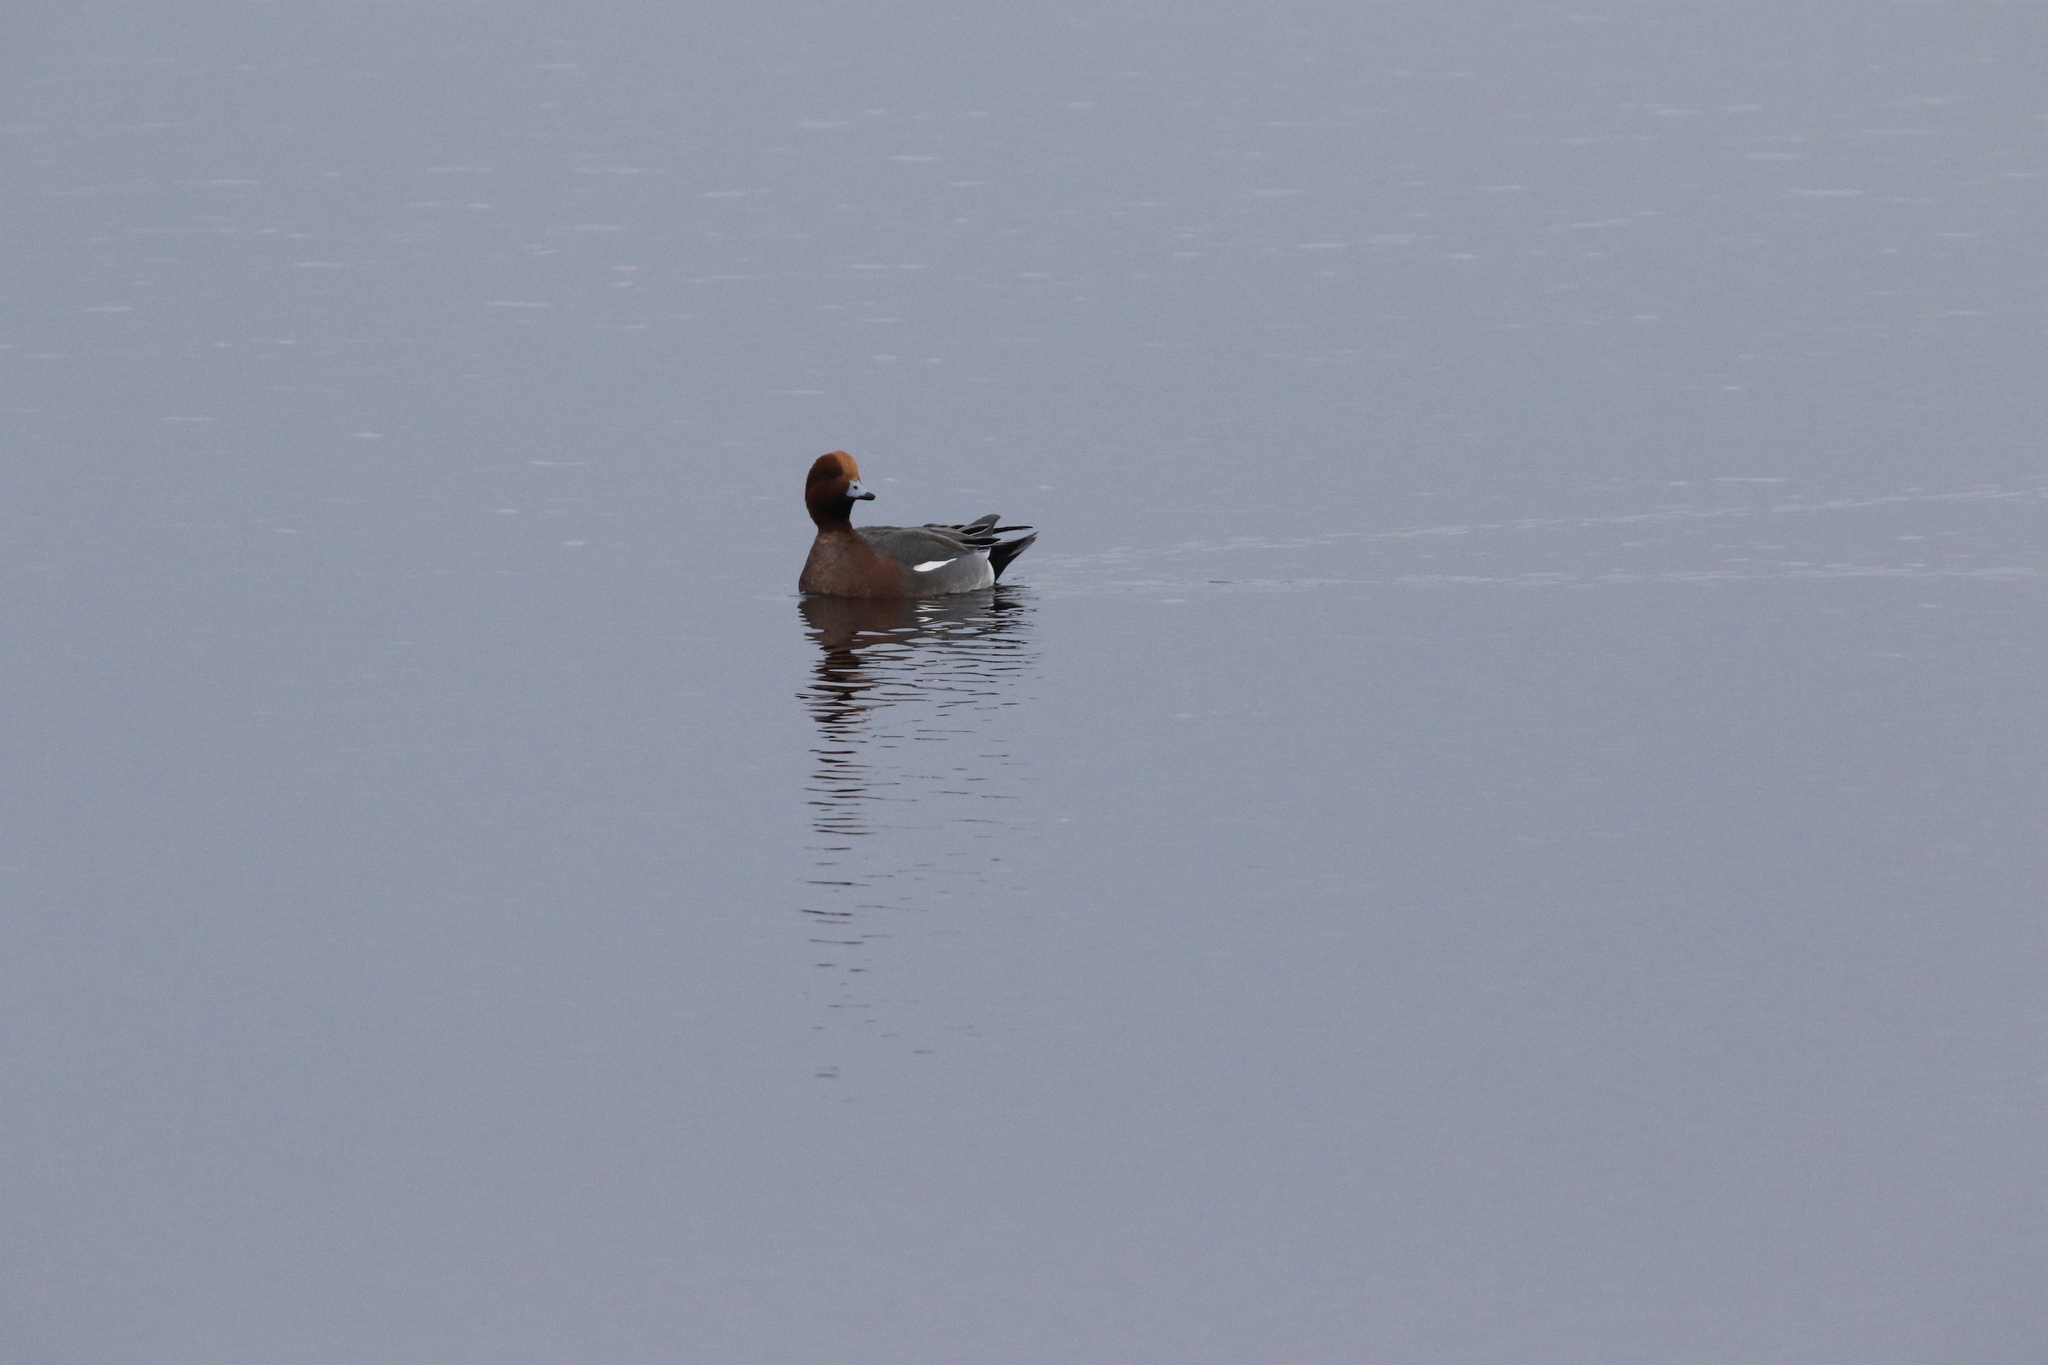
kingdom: Animalia
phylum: Chordata
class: Aves
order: Anseriformes
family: Anatidae
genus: Mareca
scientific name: Mareca penelope
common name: Eurasian wigeon
